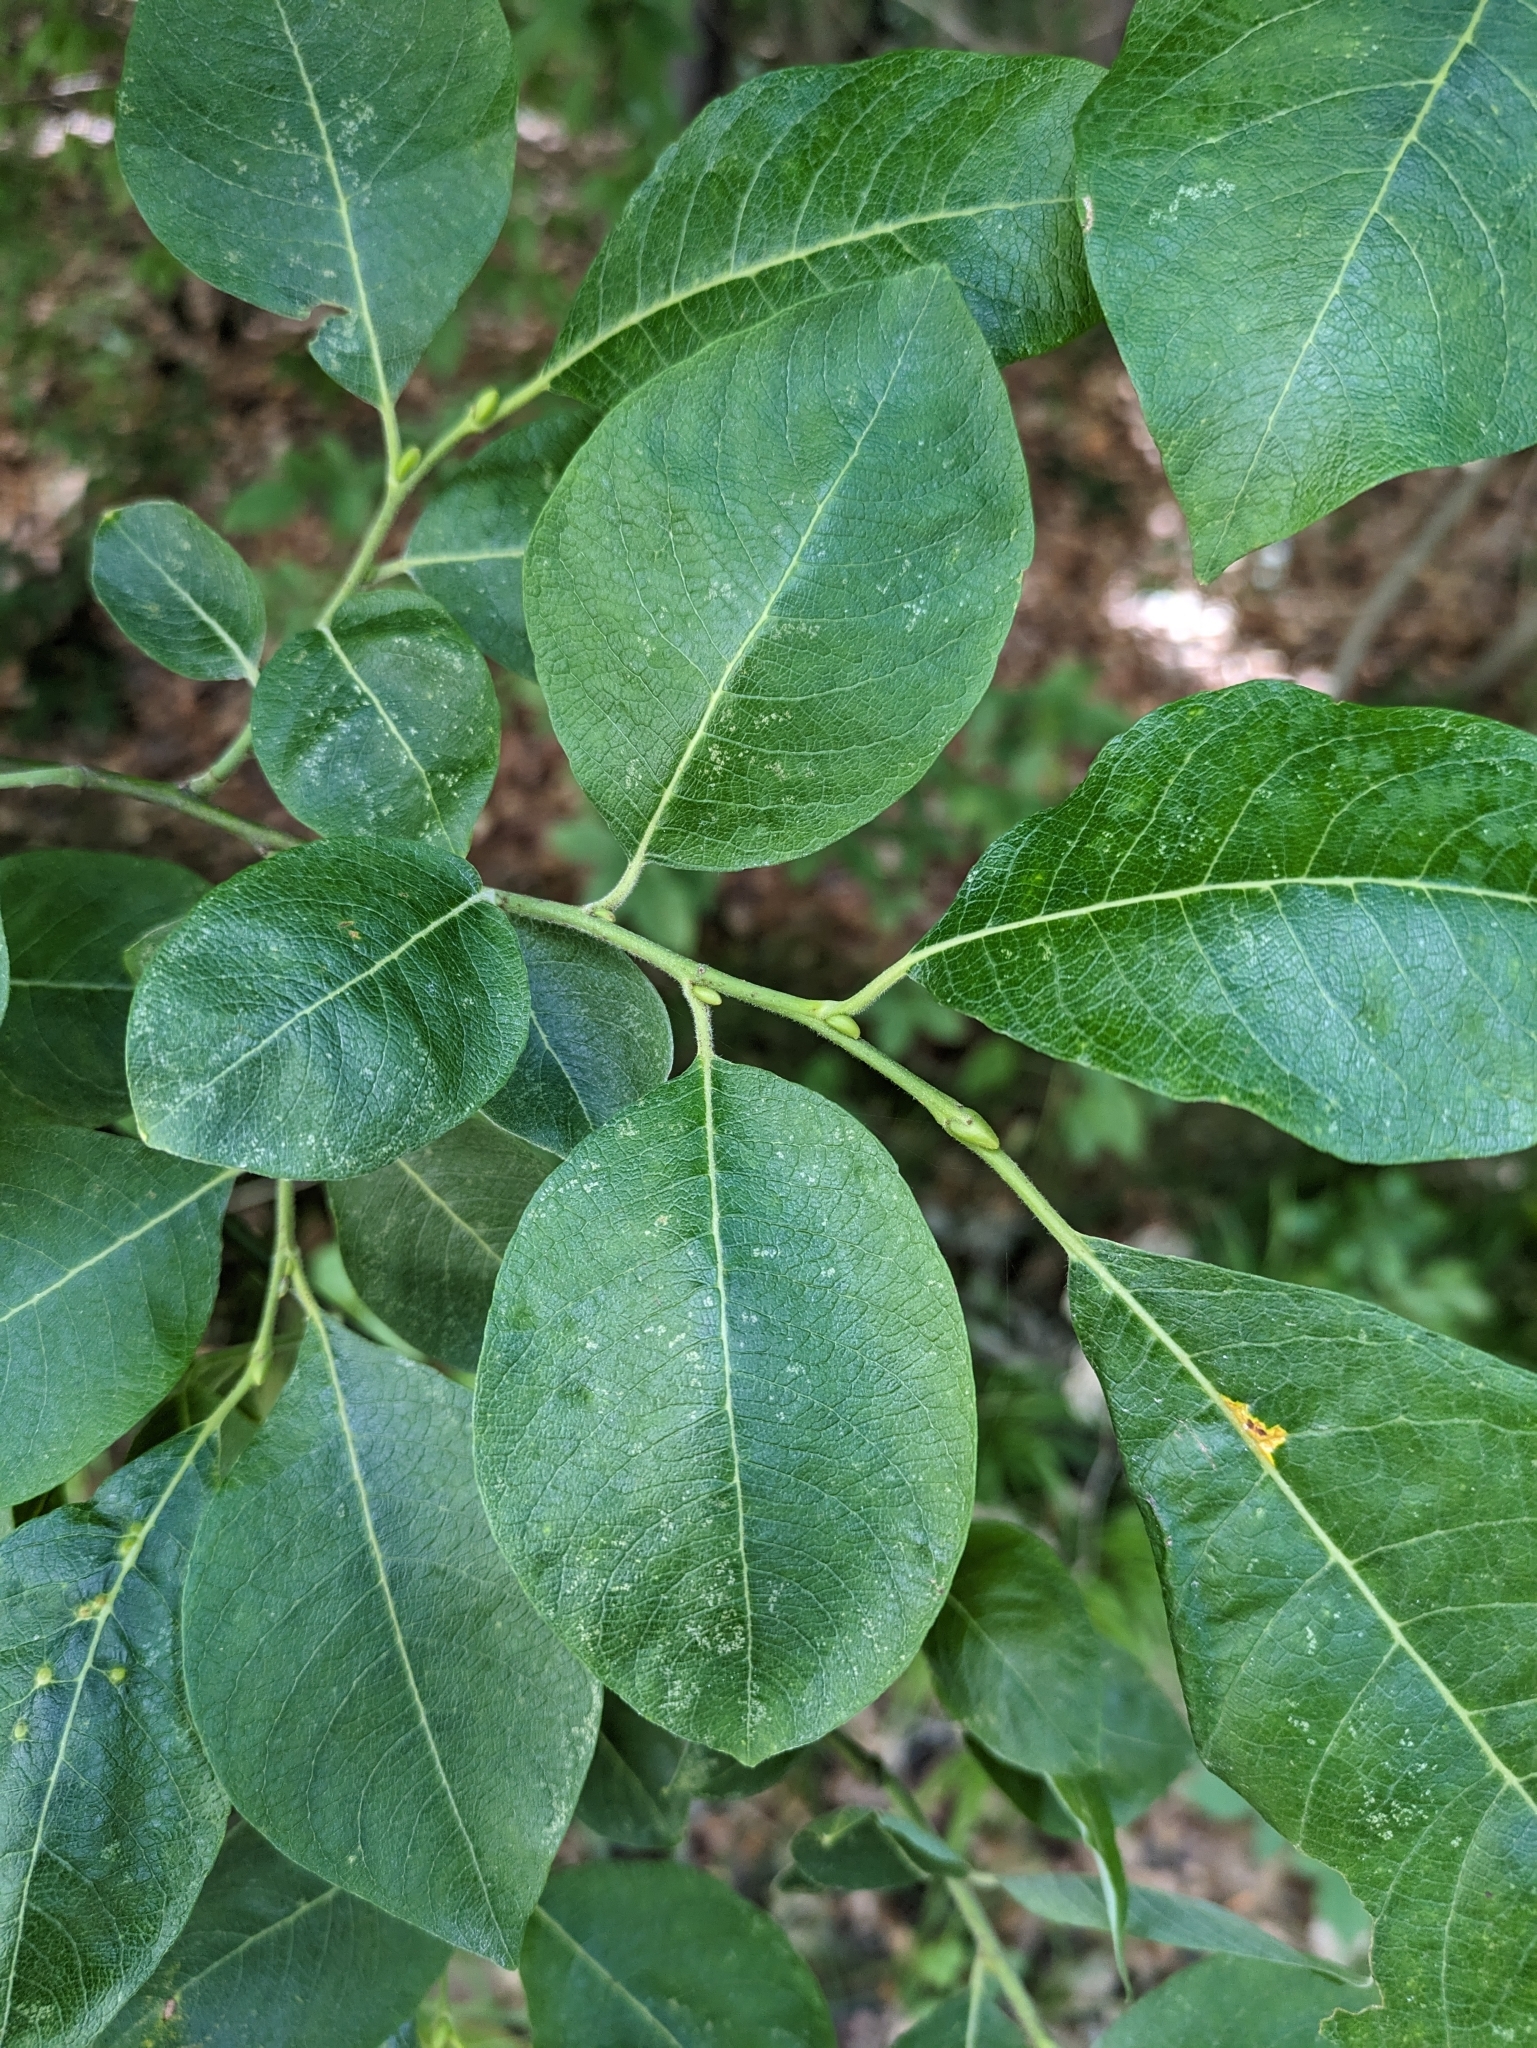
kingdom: Plantae
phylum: Tracheophyta
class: Magnoliopsida
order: Malpighiales
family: Salicaceae
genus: Salix
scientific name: Salix caprea
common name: Goat willow
